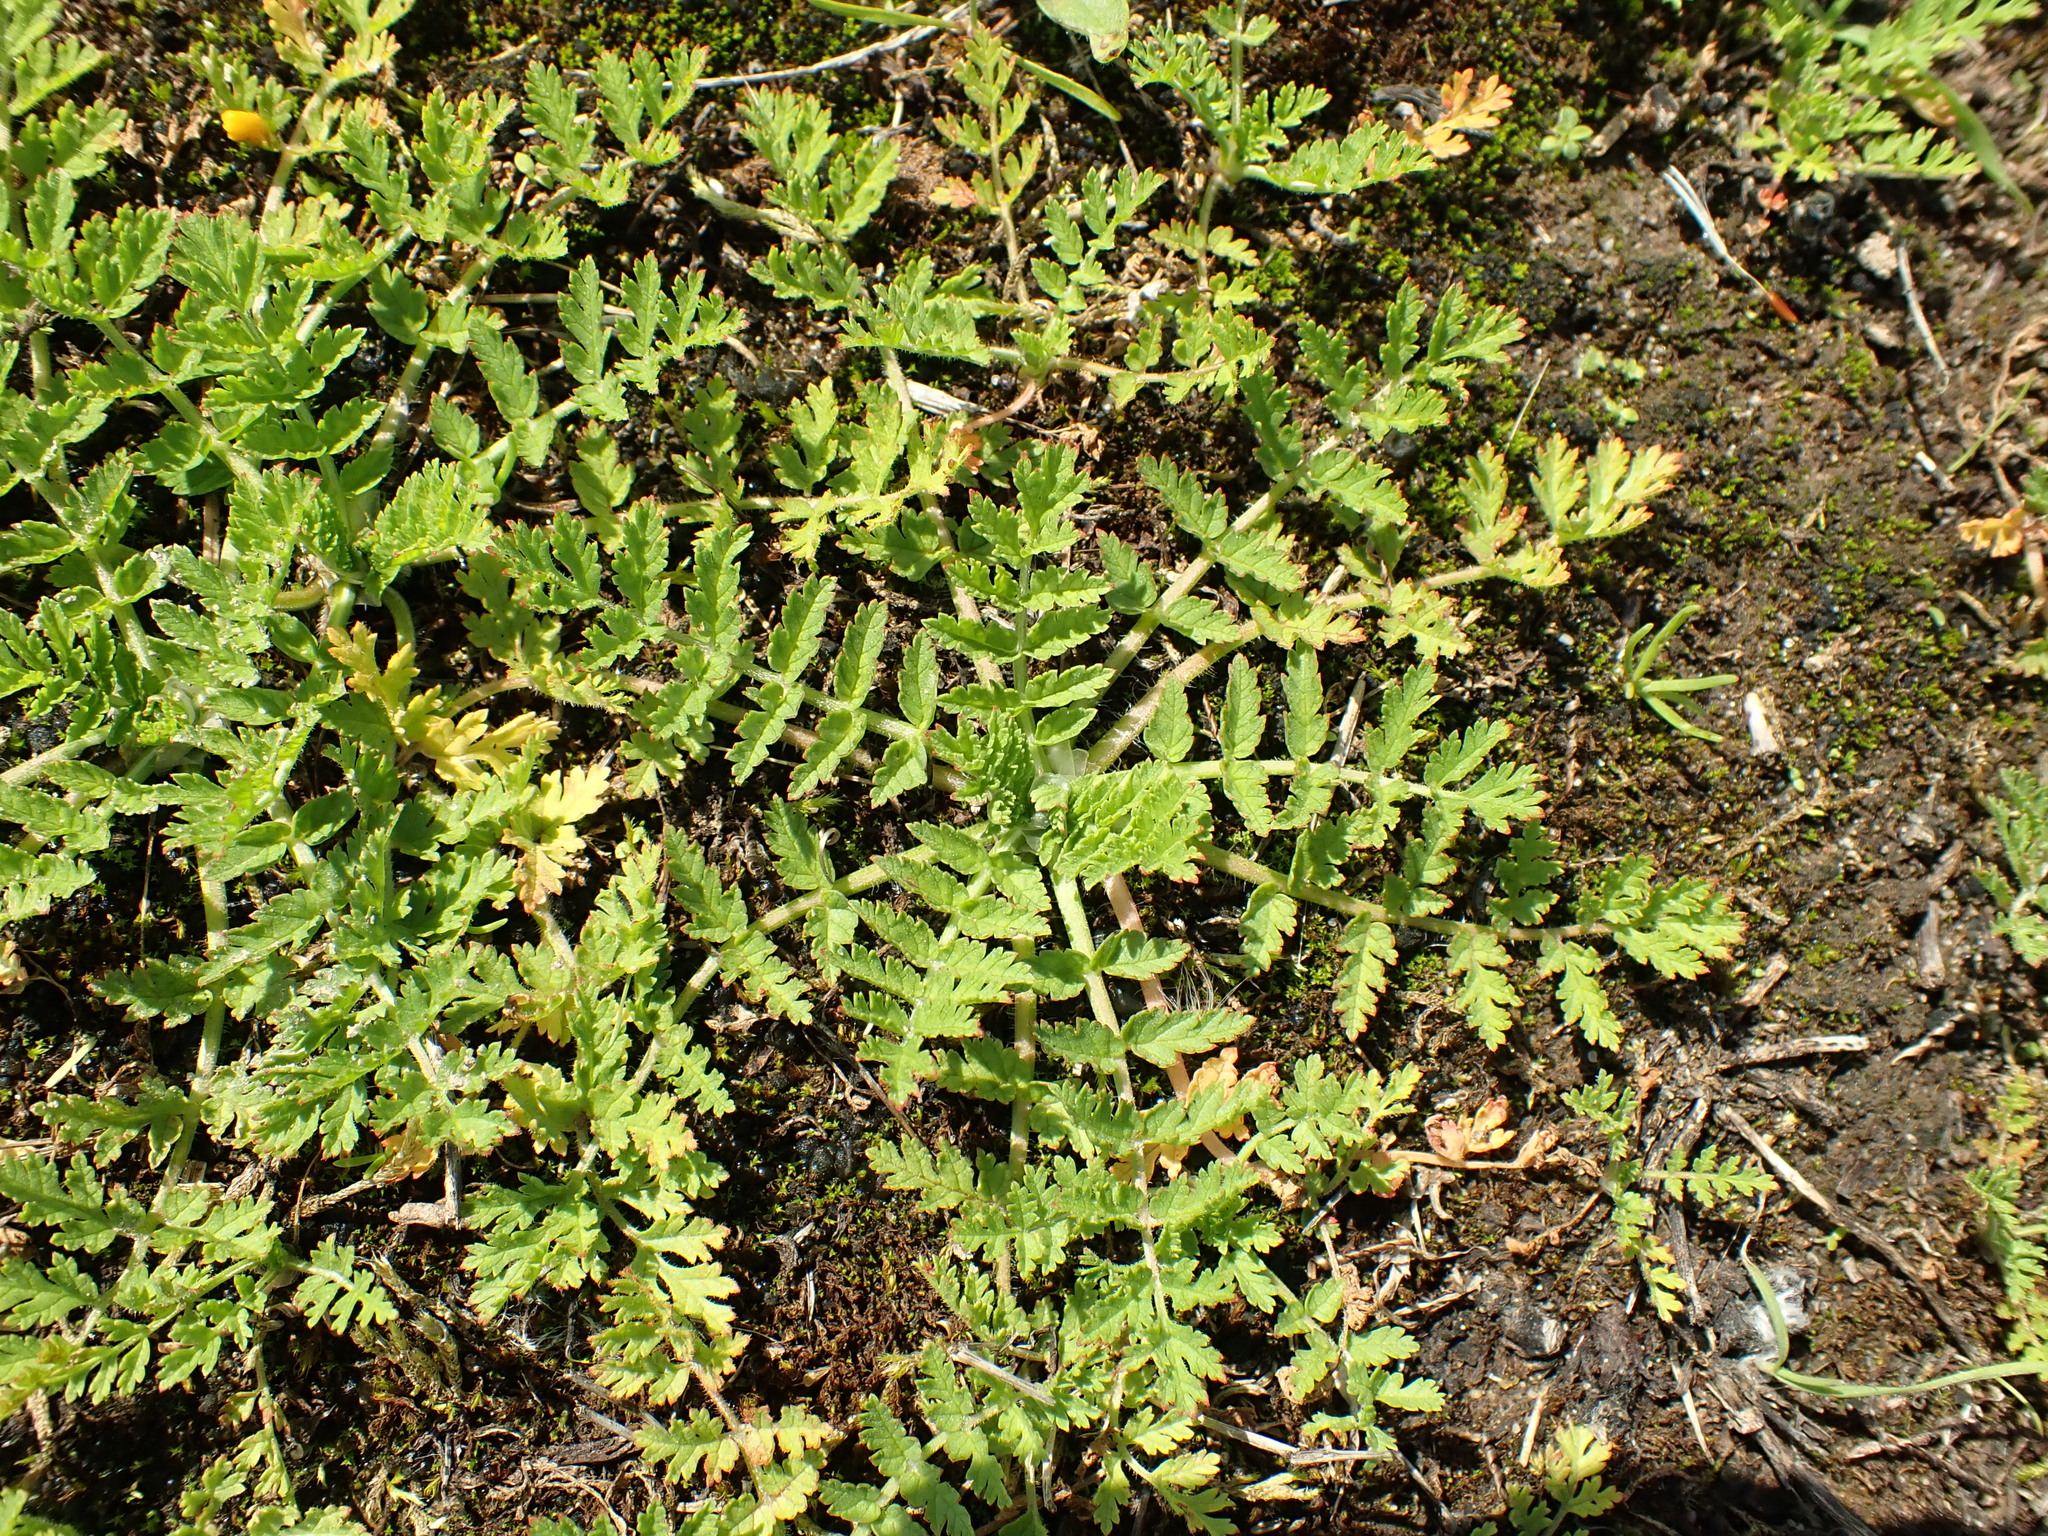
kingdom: Plantae
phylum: Tracheophyta
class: Magnoliopsida
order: Geraniales
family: Geraniaceae
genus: Erodium
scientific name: Erodium moschatum
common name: Musk stork's-bill
